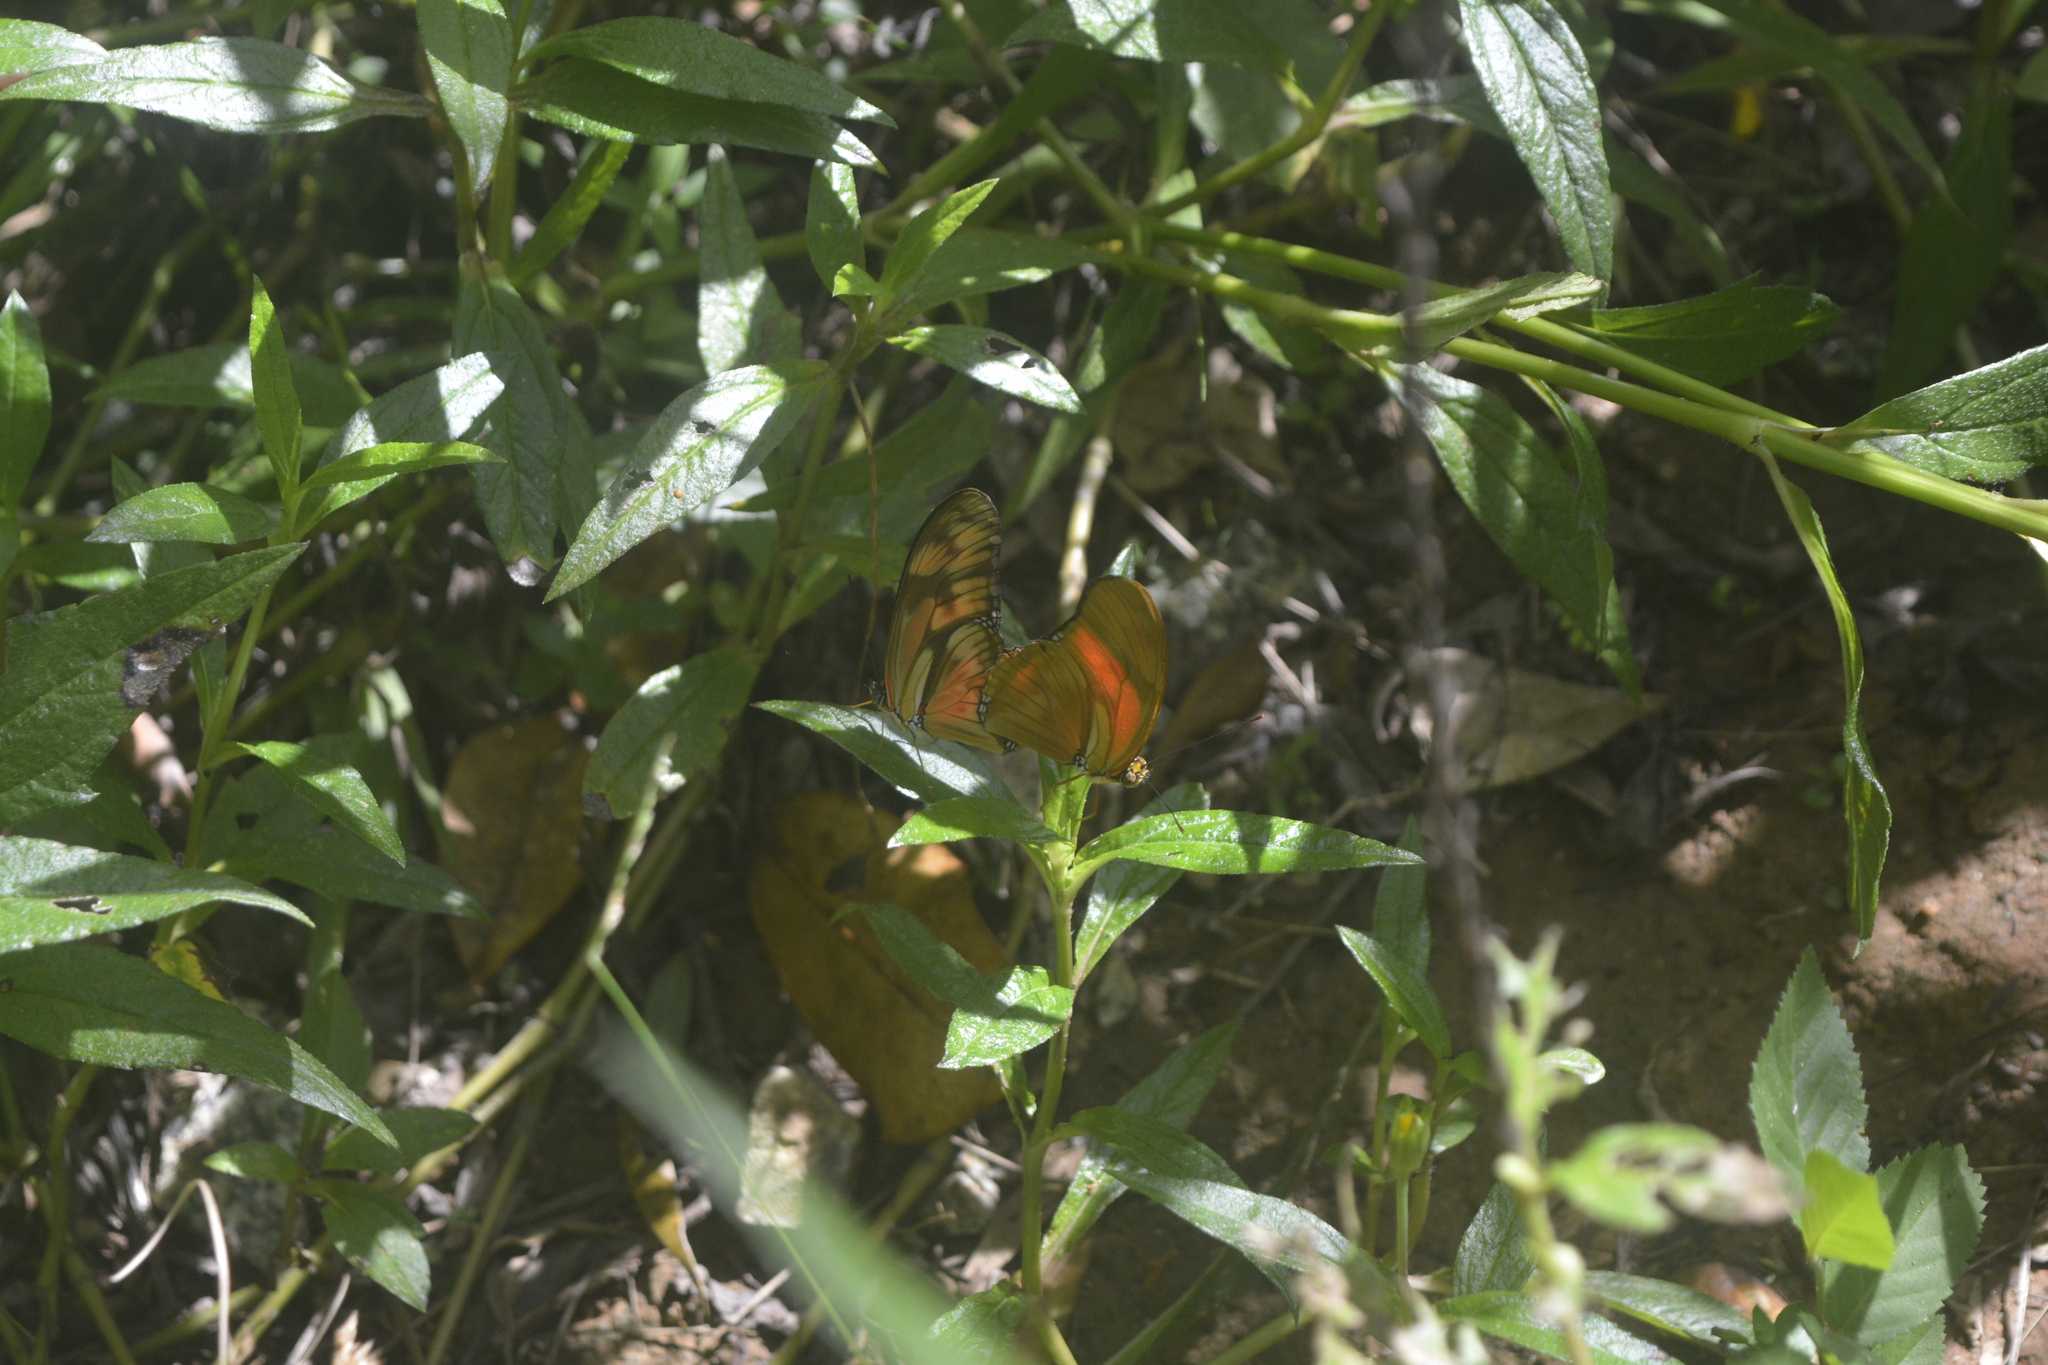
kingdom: Animalia
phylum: Arthropoda
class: Insecta
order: Lepidoptera
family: Nymphalidae
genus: Dryas
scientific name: Dryas iulia
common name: Flambeau
